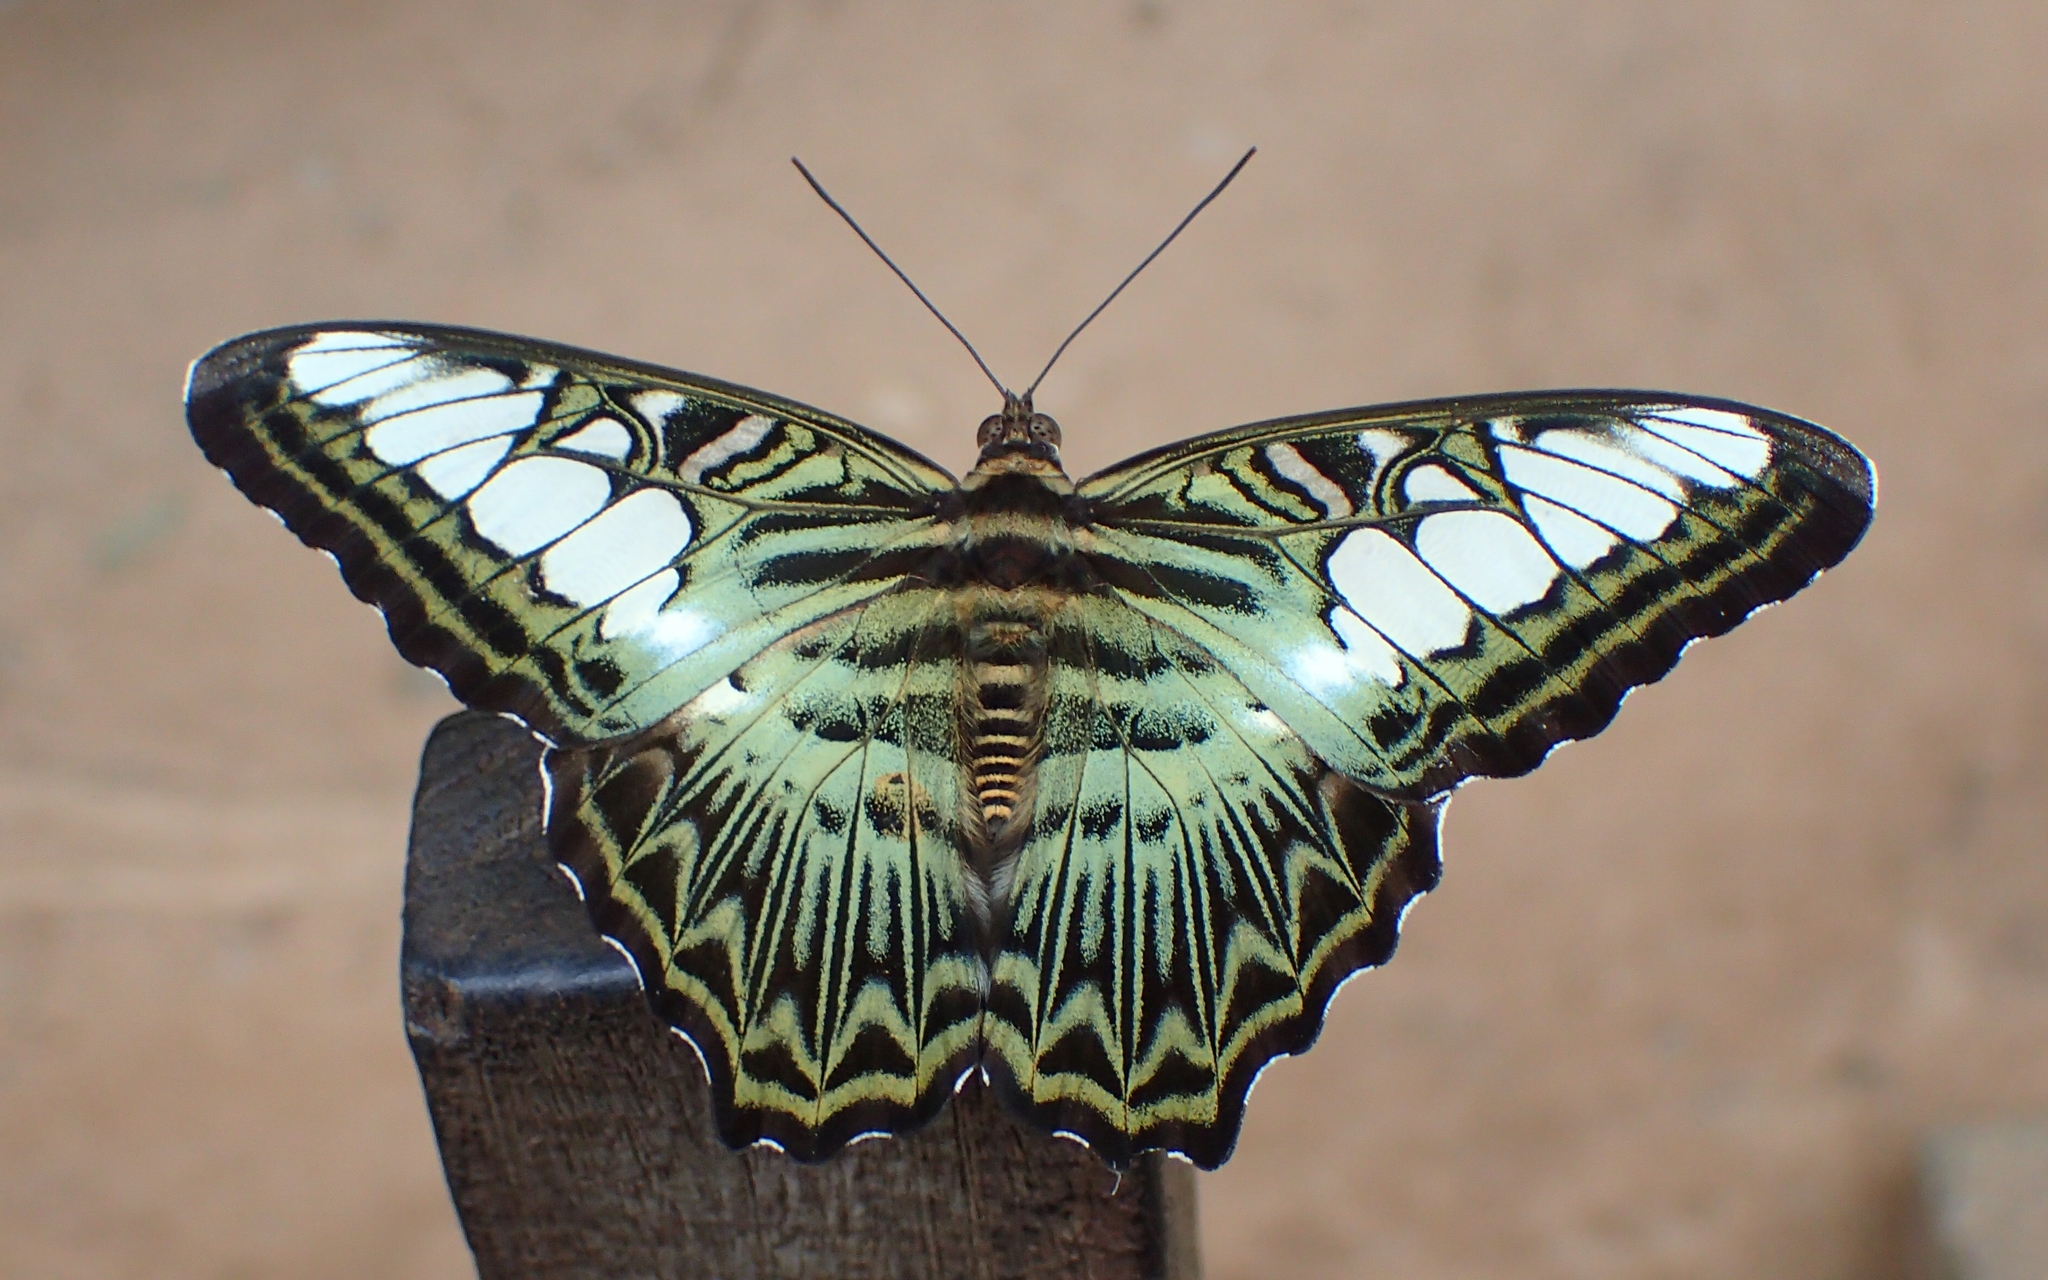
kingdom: Animalia
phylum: Arthropoda
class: Insecta
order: Lepidoptera
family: Nymphalidae
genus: Kallima
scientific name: Kallima sylvia
